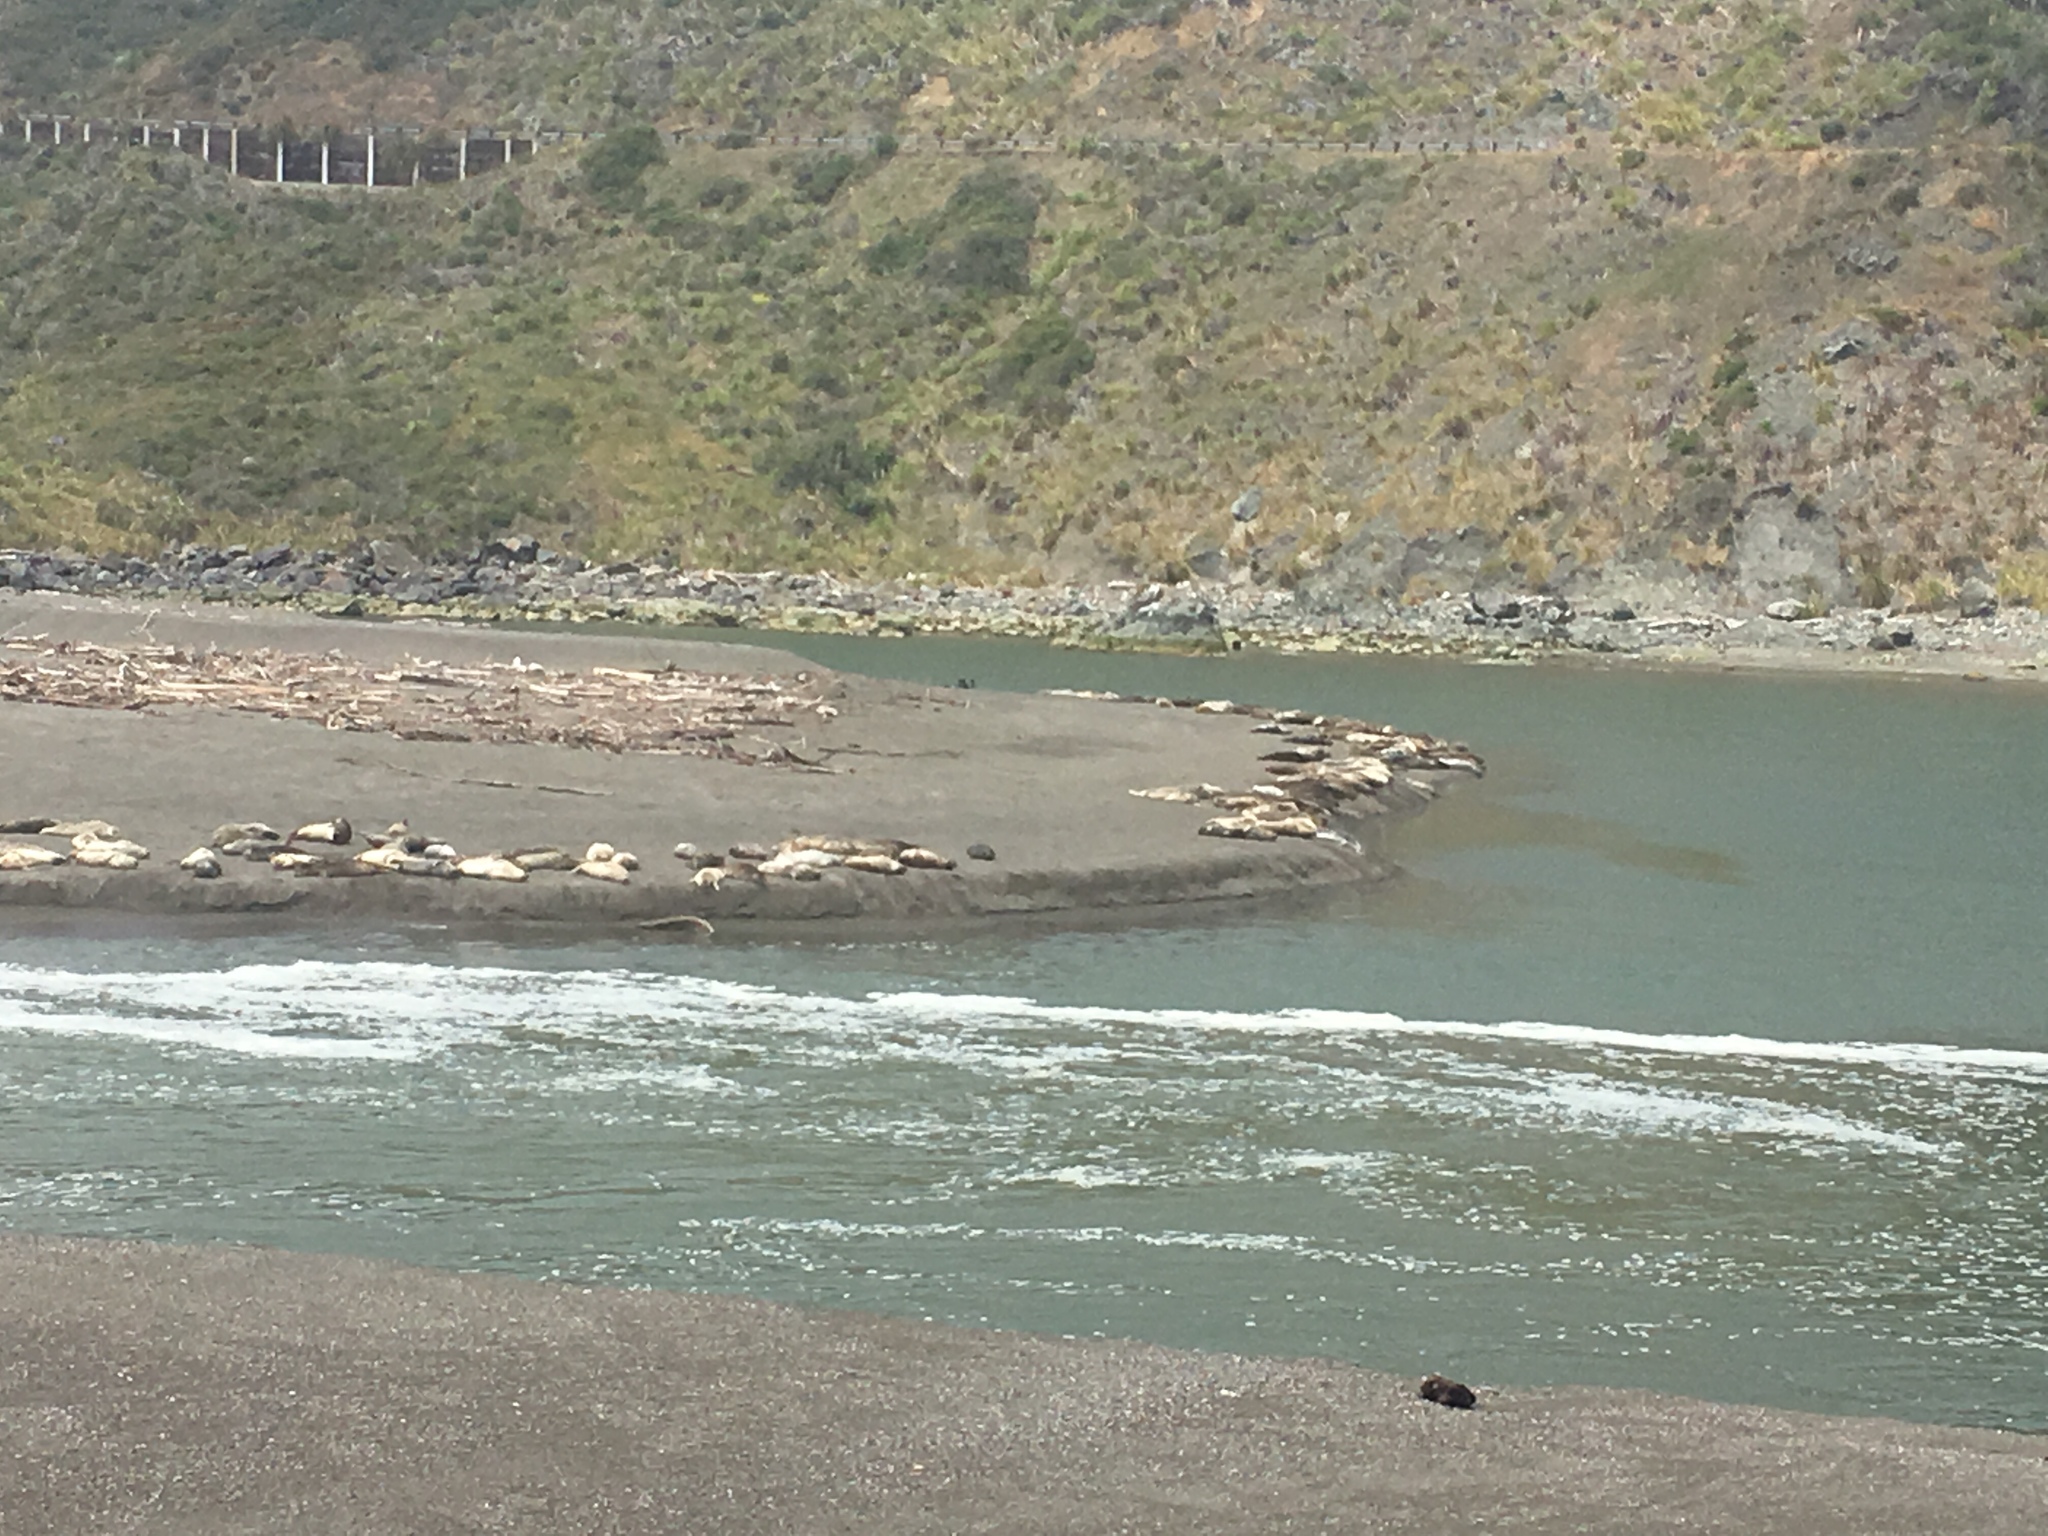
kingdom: Animalia
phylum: Chordata
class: Mammalia
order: Carnivora
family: Phocidae
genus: Phoca
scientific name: Phoca vitulina
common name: Harbor seal
